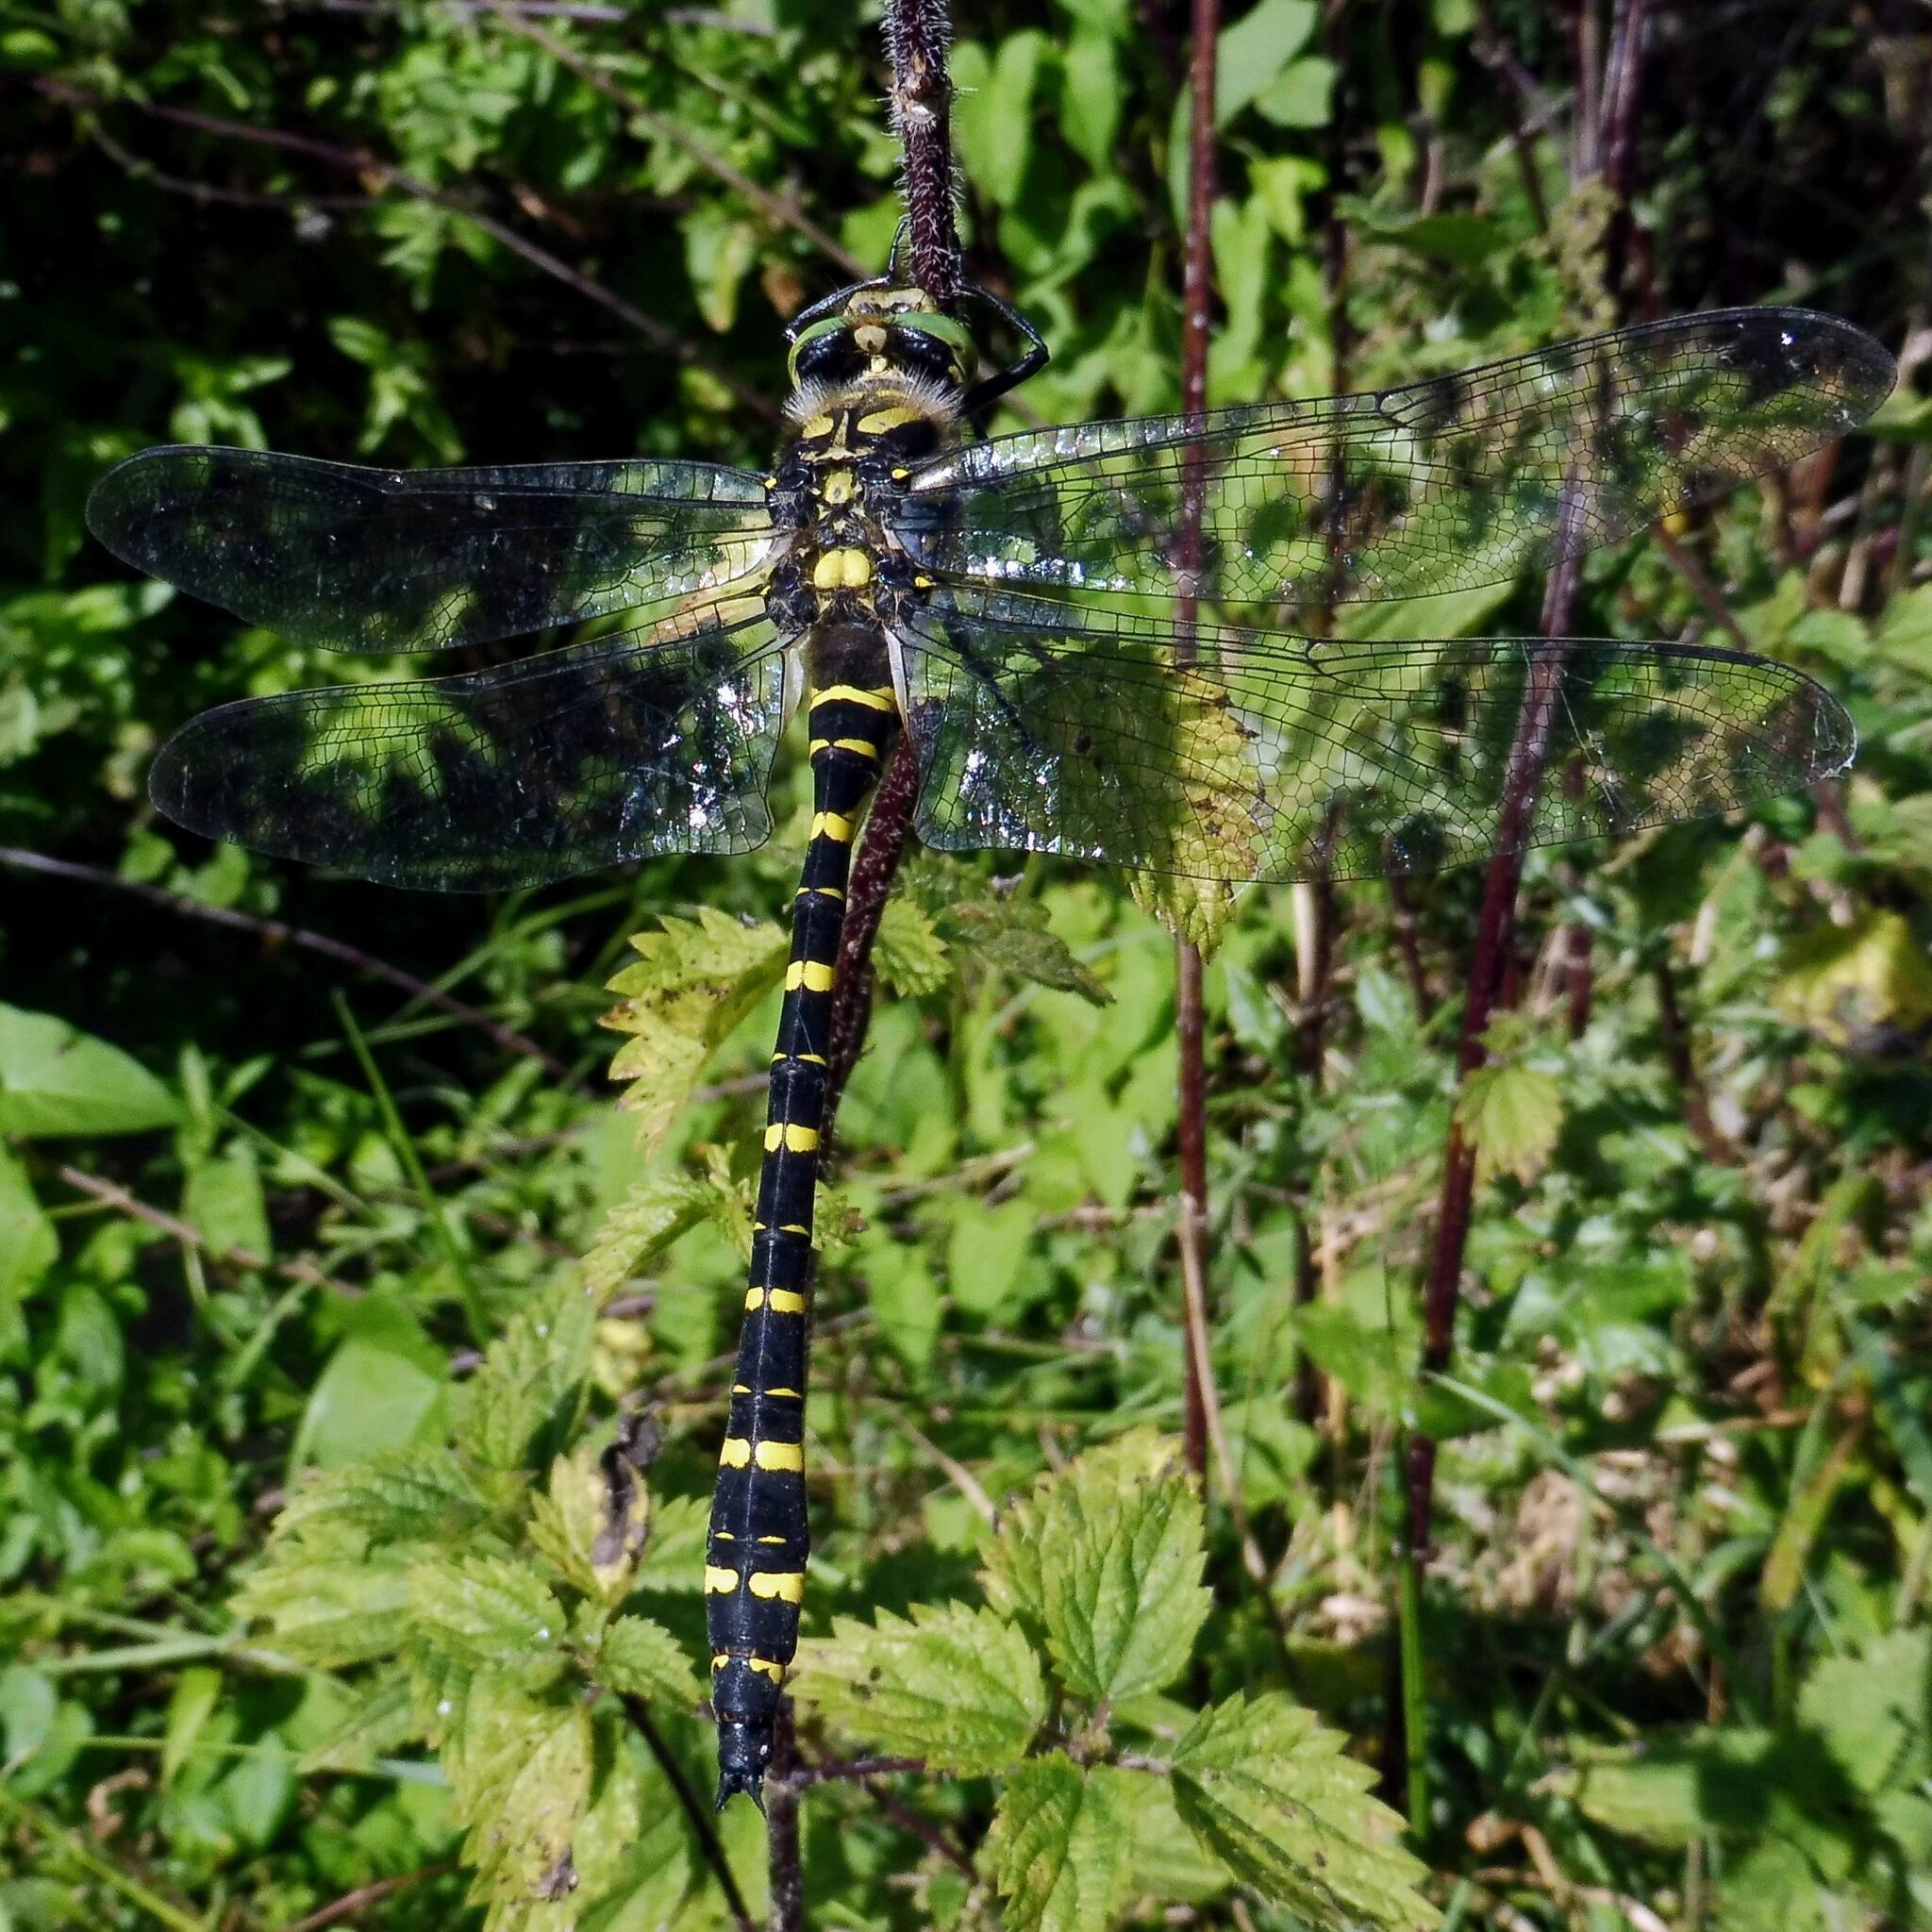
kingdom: Animalia
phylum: Arthropoda
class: Insecta
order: Odonata
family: Cordulegastridae
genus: Cordulegaster
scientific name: Cordulegaster boltonii
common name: Golden-ringed dragonfly
